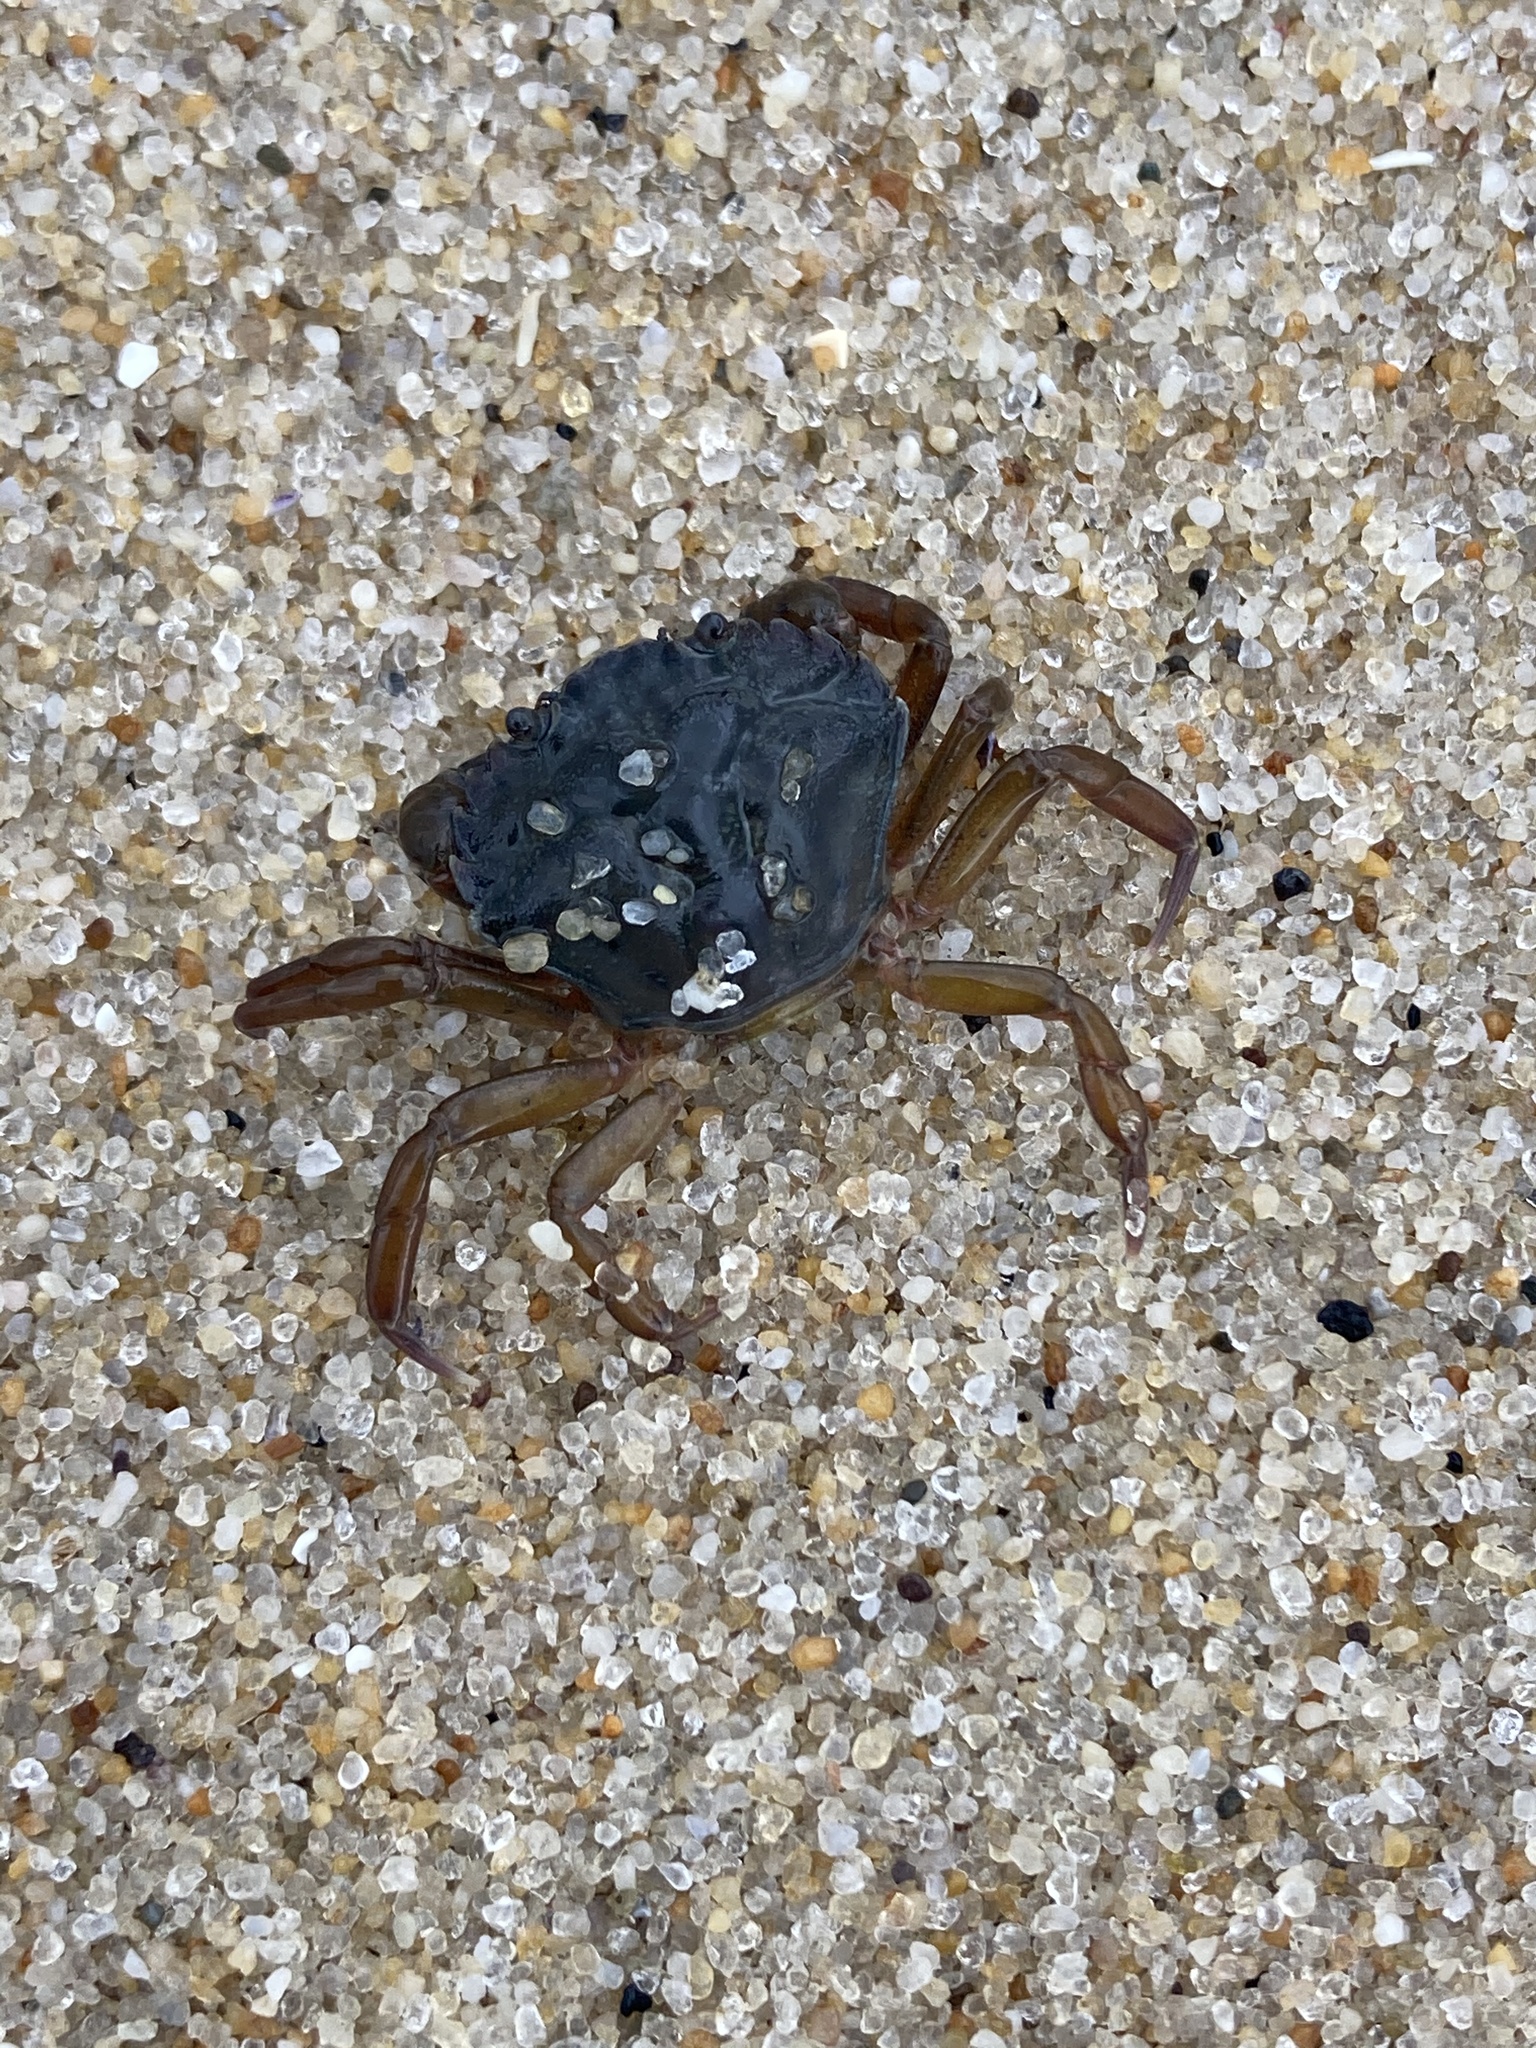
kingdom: Animalia
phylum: Arthropoda
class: Malacostraca
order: Decapoda
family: Carcinidae
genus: Carcinus
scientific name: Carcinus maenas
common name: European green crab
